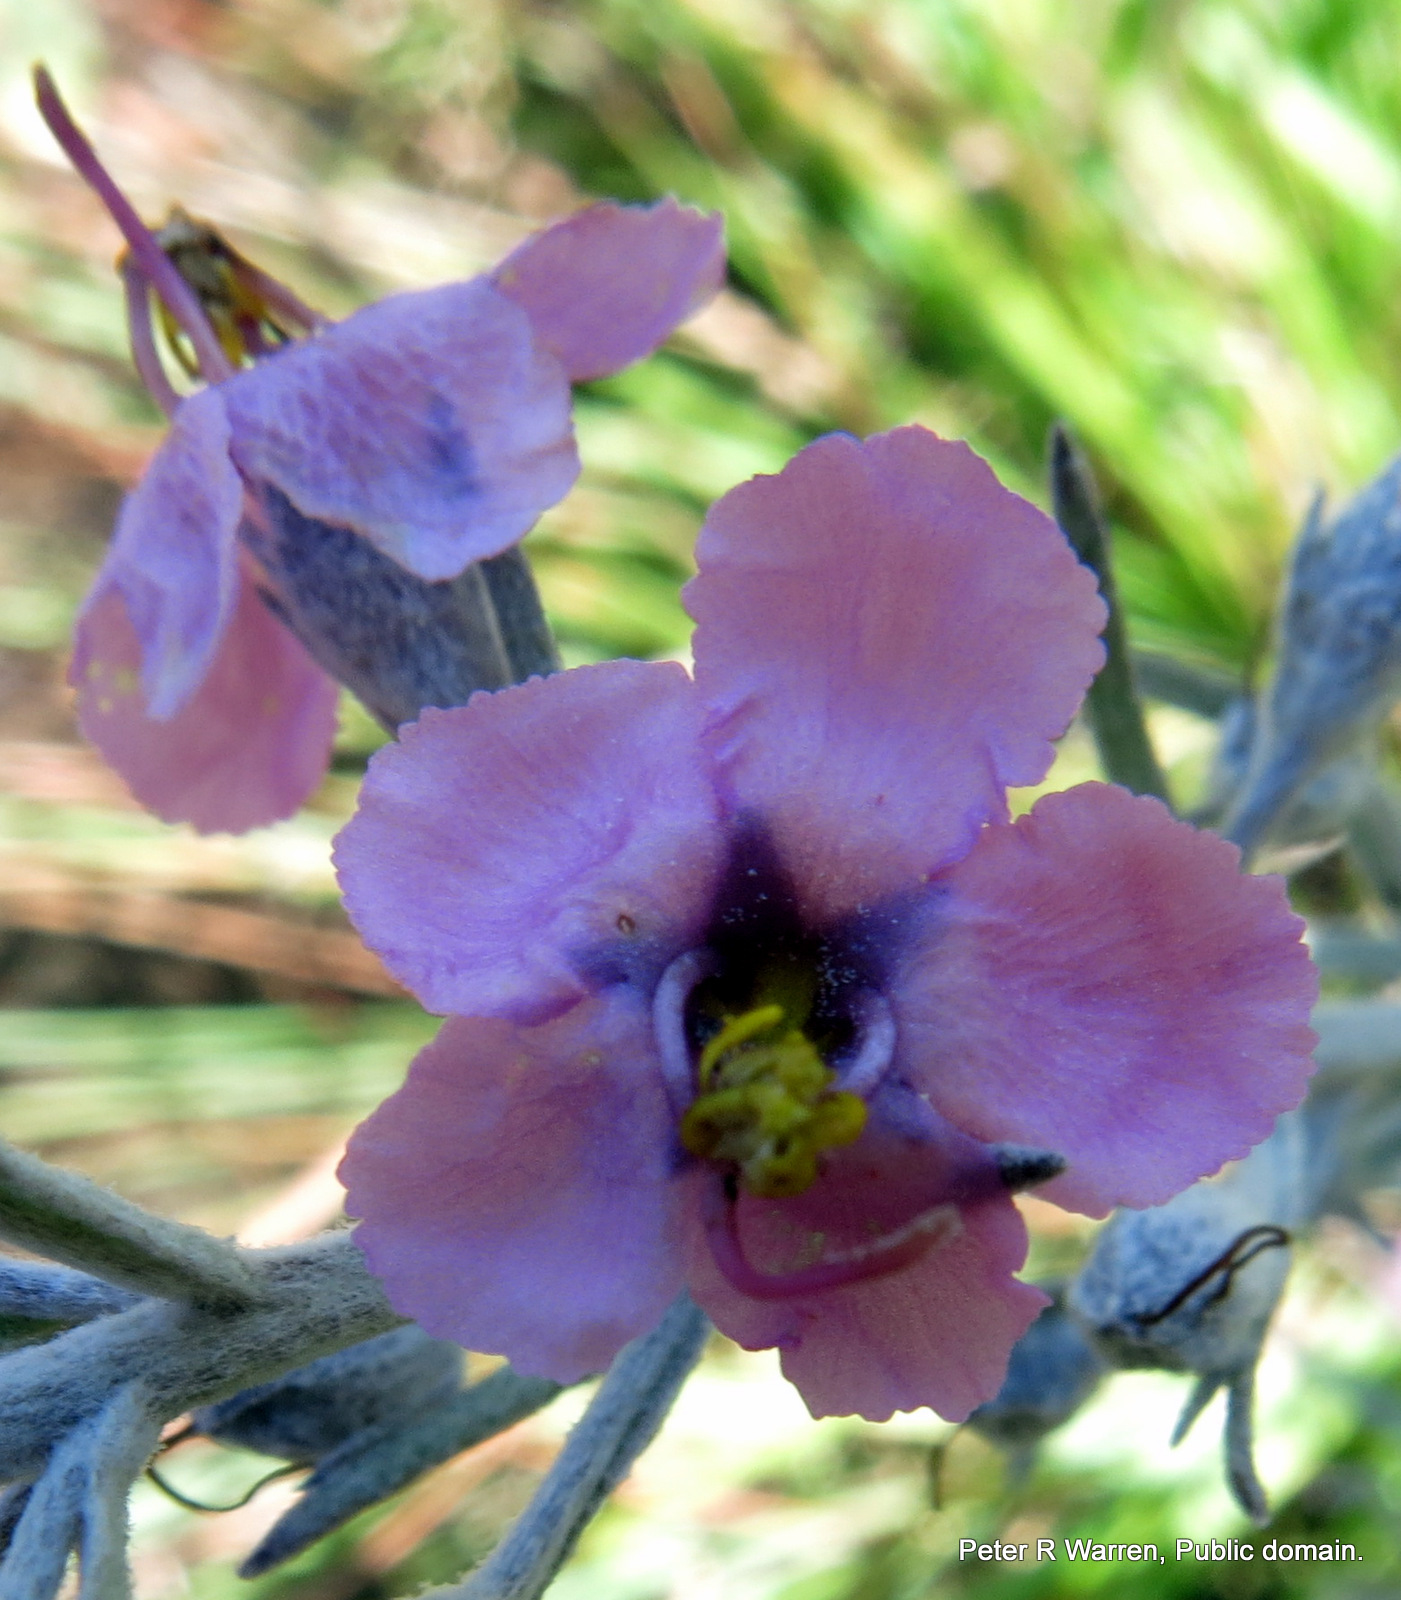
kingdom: Plantae
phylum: Tracheophyta
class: Magnoliopsida
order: Lamiales
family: Orobanchaceae
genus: Sopubia
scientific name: Sopubia cana
